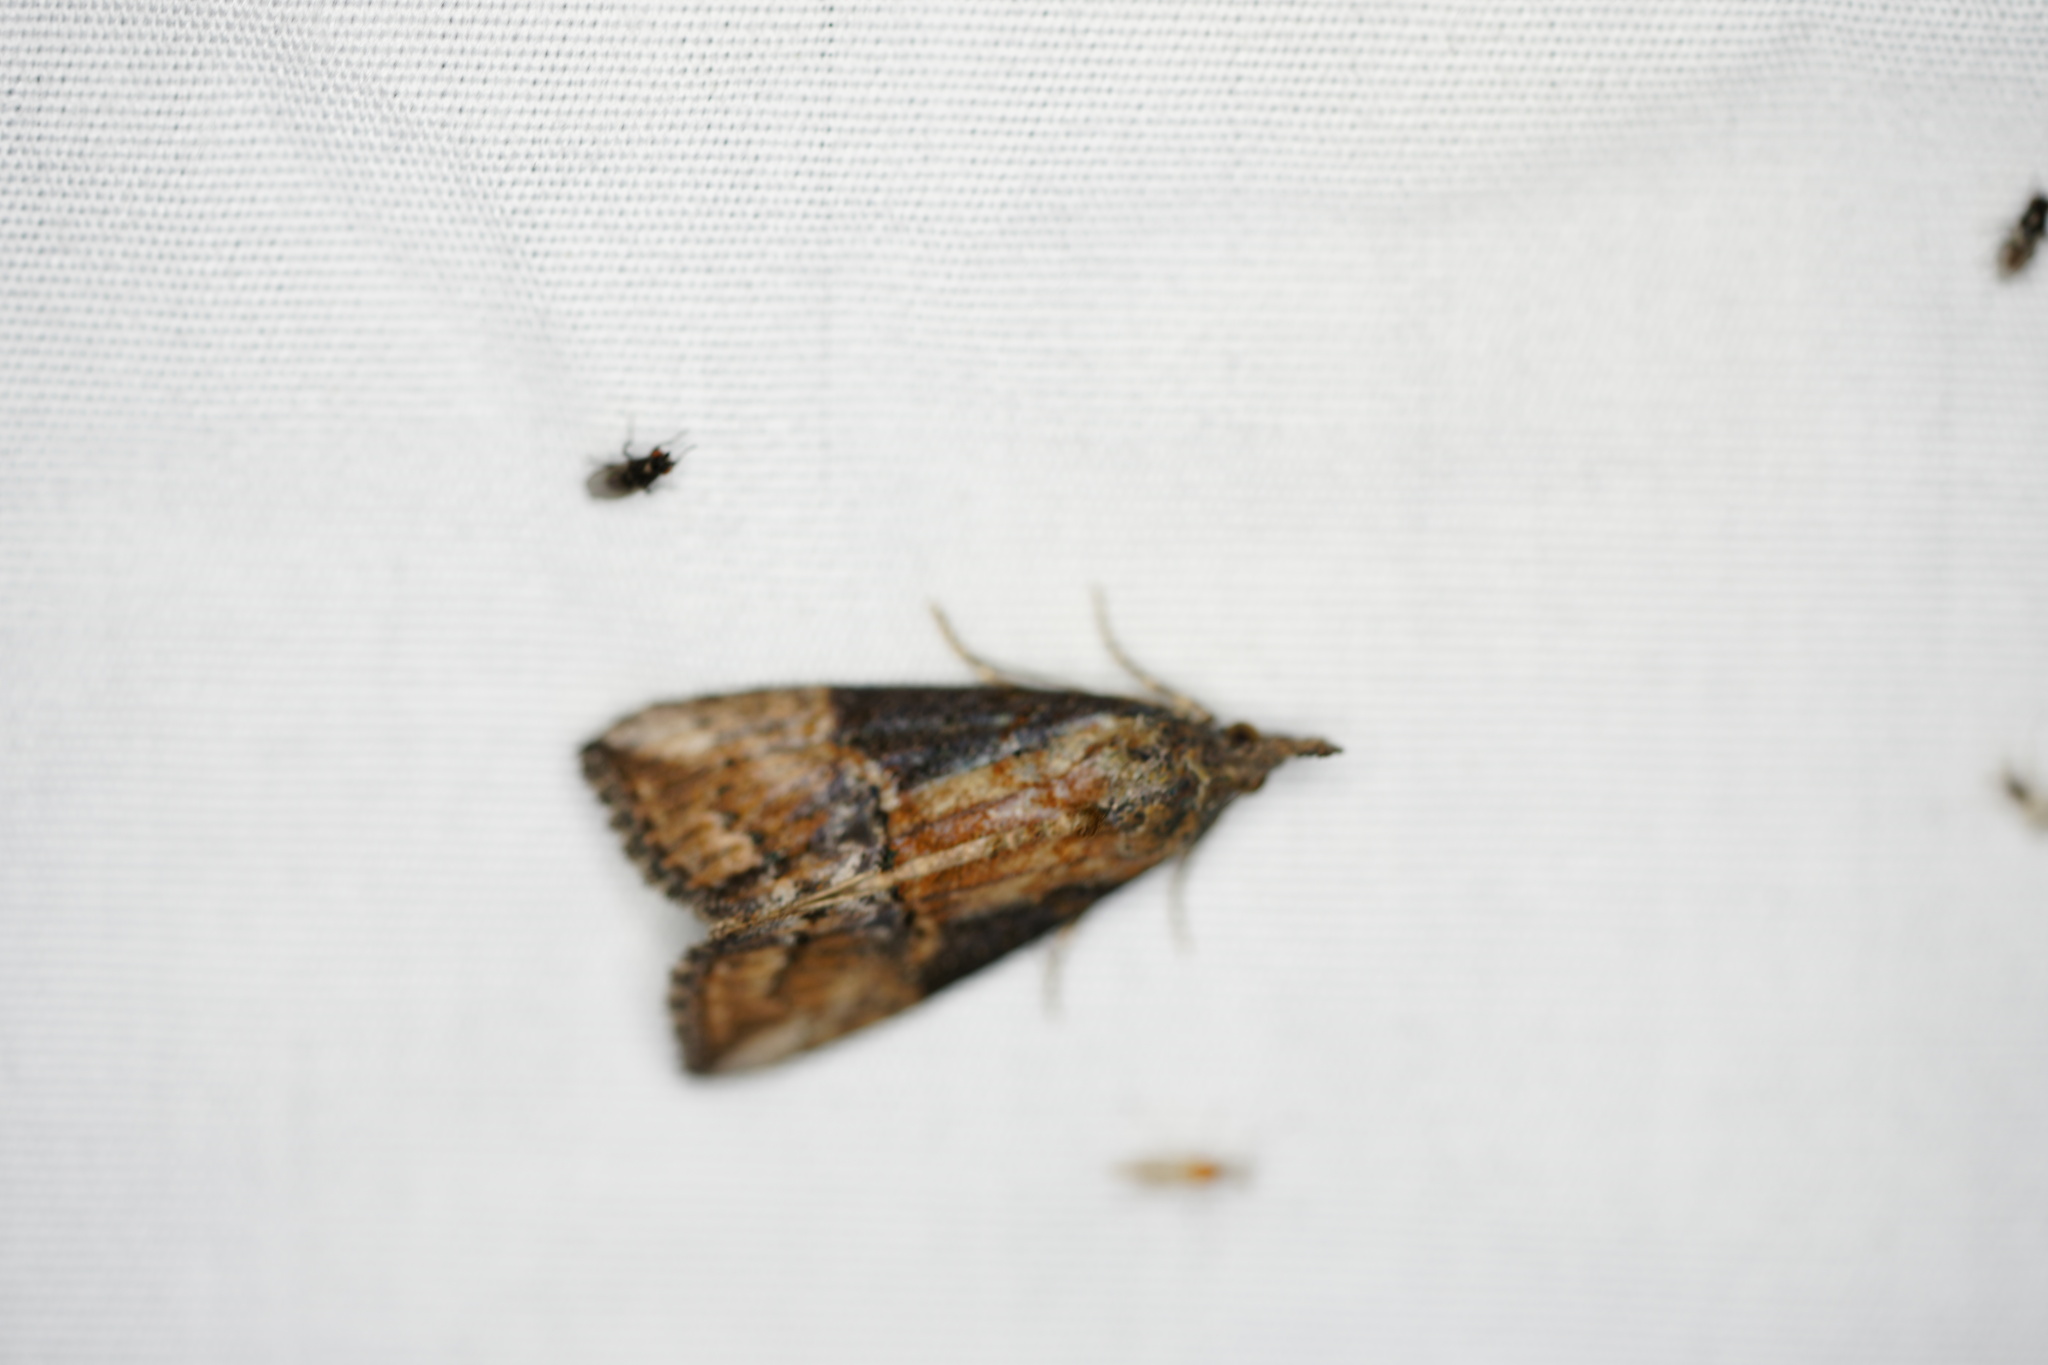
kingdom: Animalia
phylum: Arthropoda
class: Insecta
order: Lepidoptera
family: Erebidae
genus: Hypena
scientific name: Hypena scabra
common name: Green cloverworm
